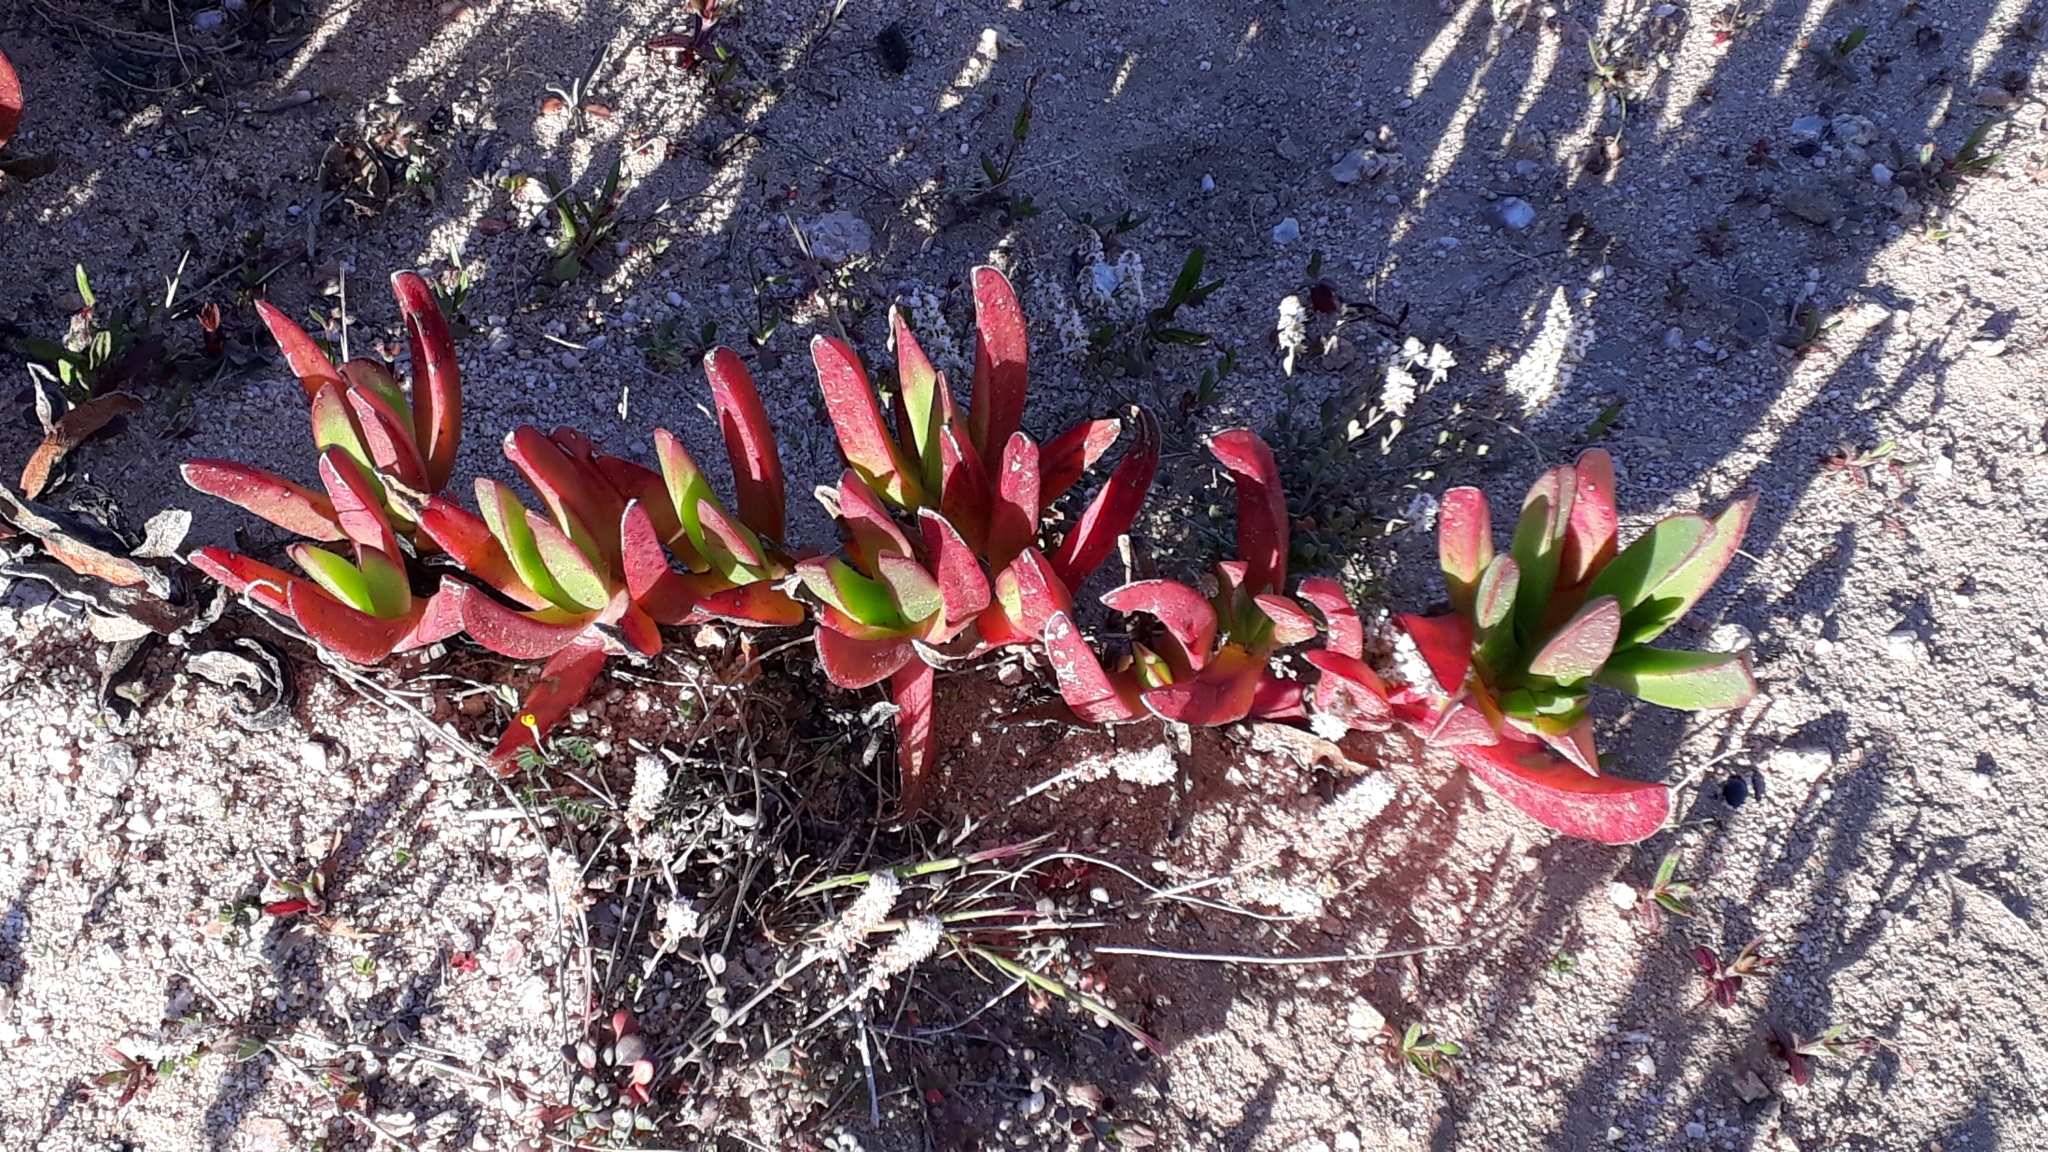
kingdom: Plantae
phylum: Tracheophyta
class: Magnoliopsida
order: Caryophyllales
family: Aizoaceae
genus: Carpobrotus
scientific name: Carpobrotus edulis
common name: Hottentot-fig
